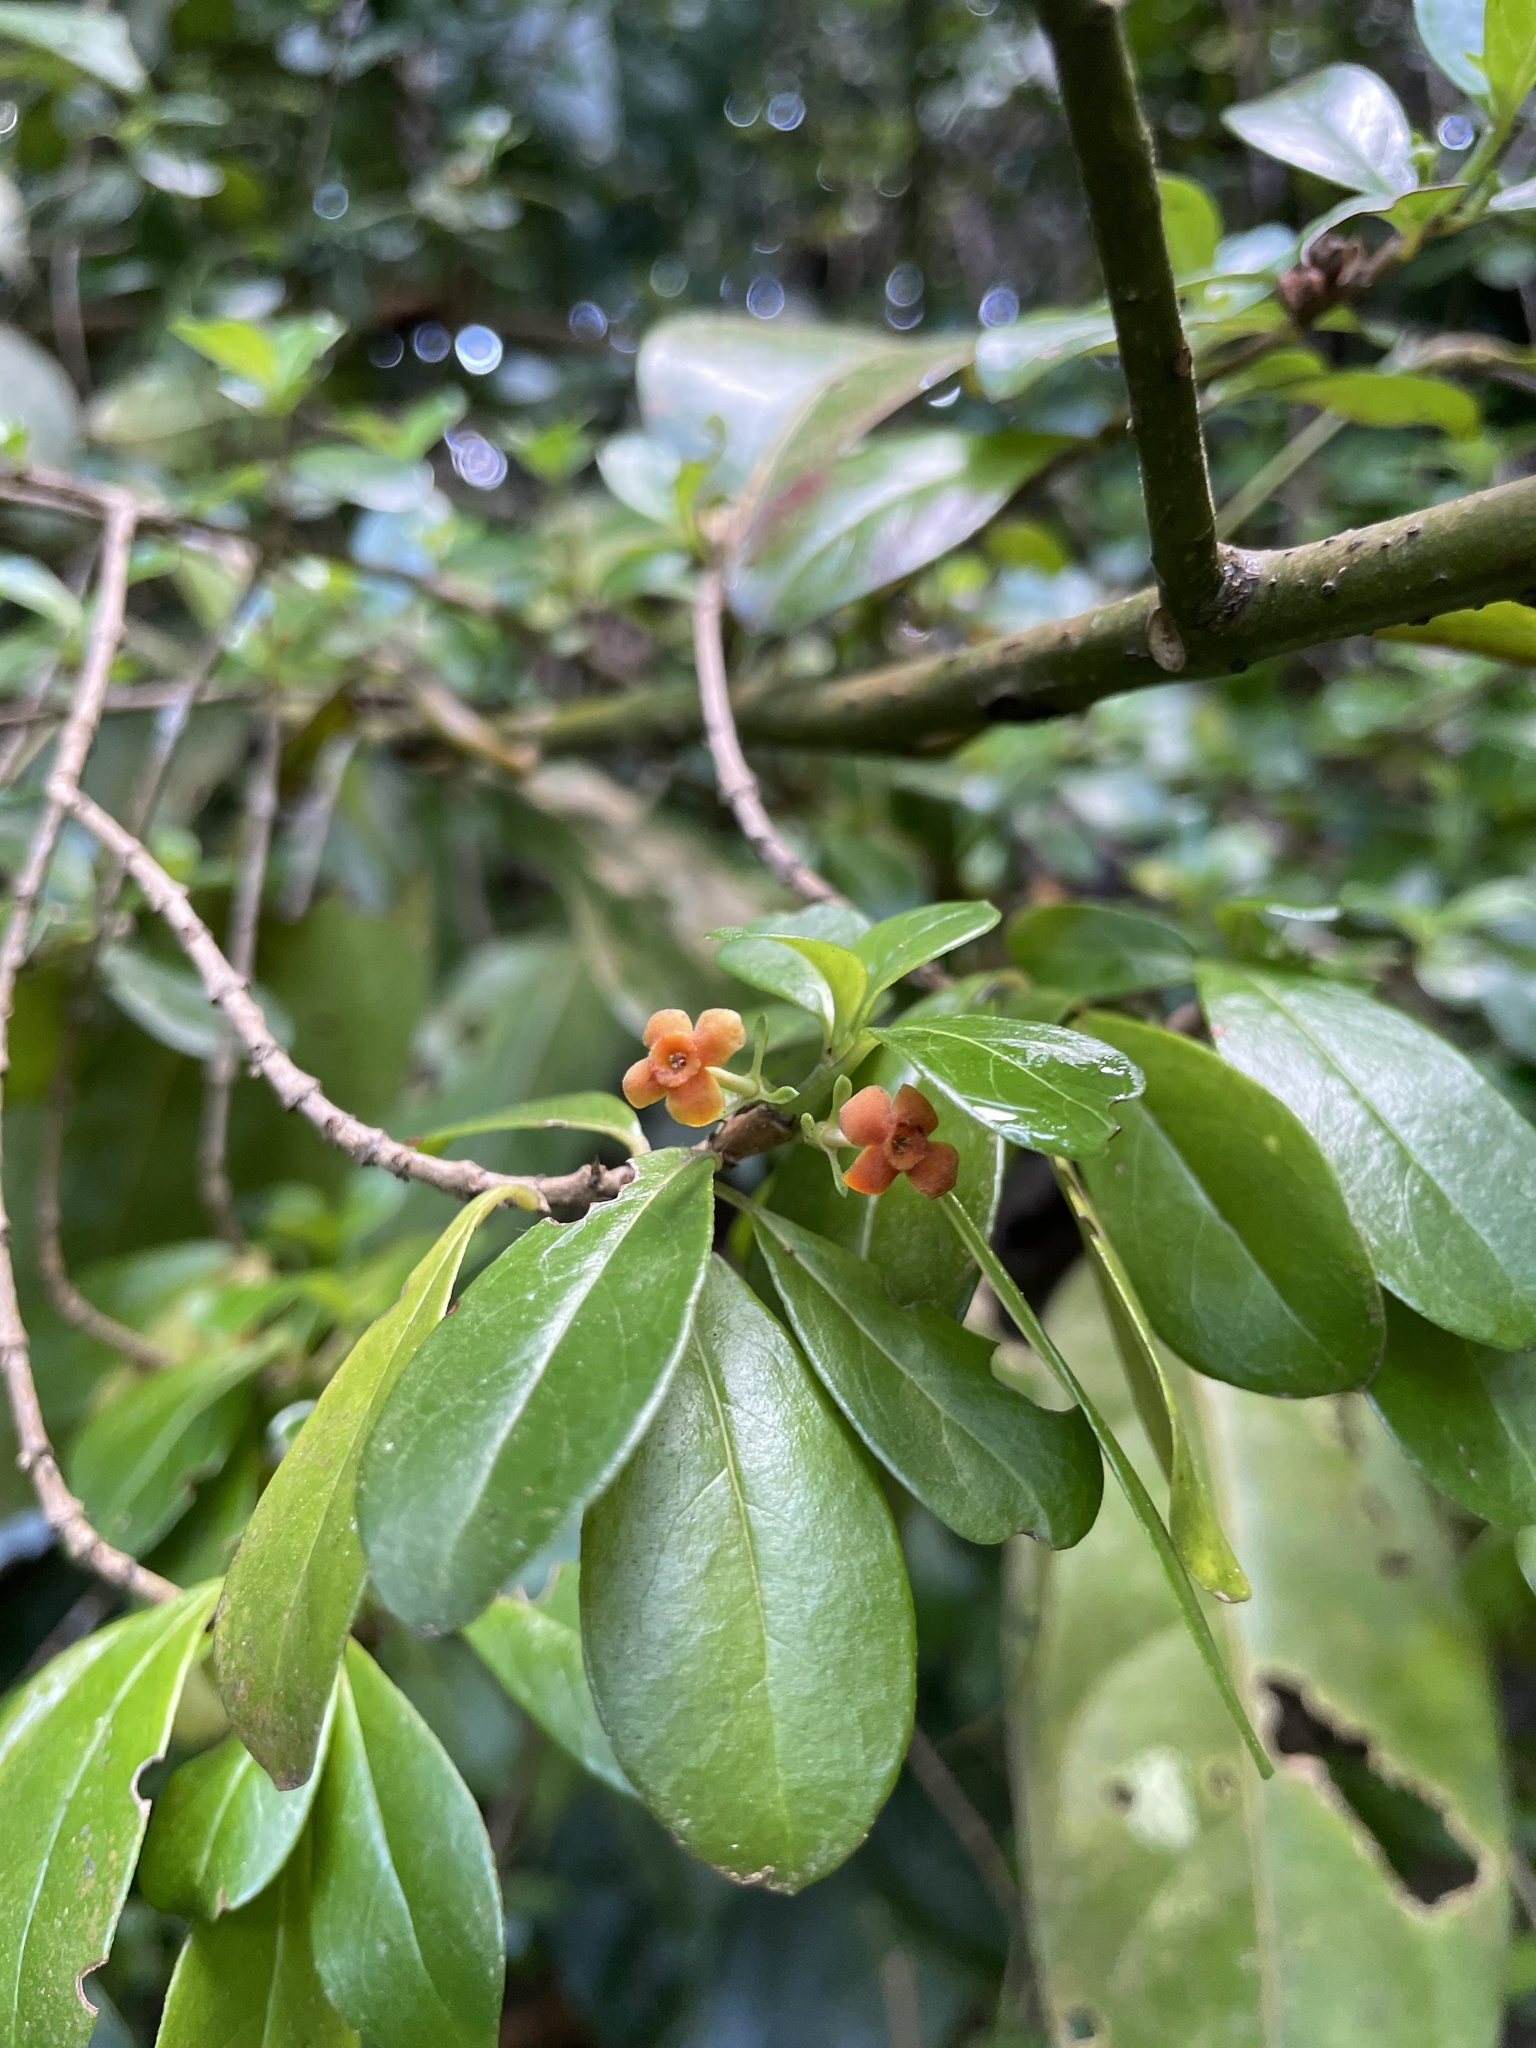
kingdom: Plantae
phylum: Tracheophyta
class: Magnoliopsida
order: Gentianales
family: Rubiaceae
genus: Rondeletia
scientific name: Rondeletia buxifolia
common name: Pribby
